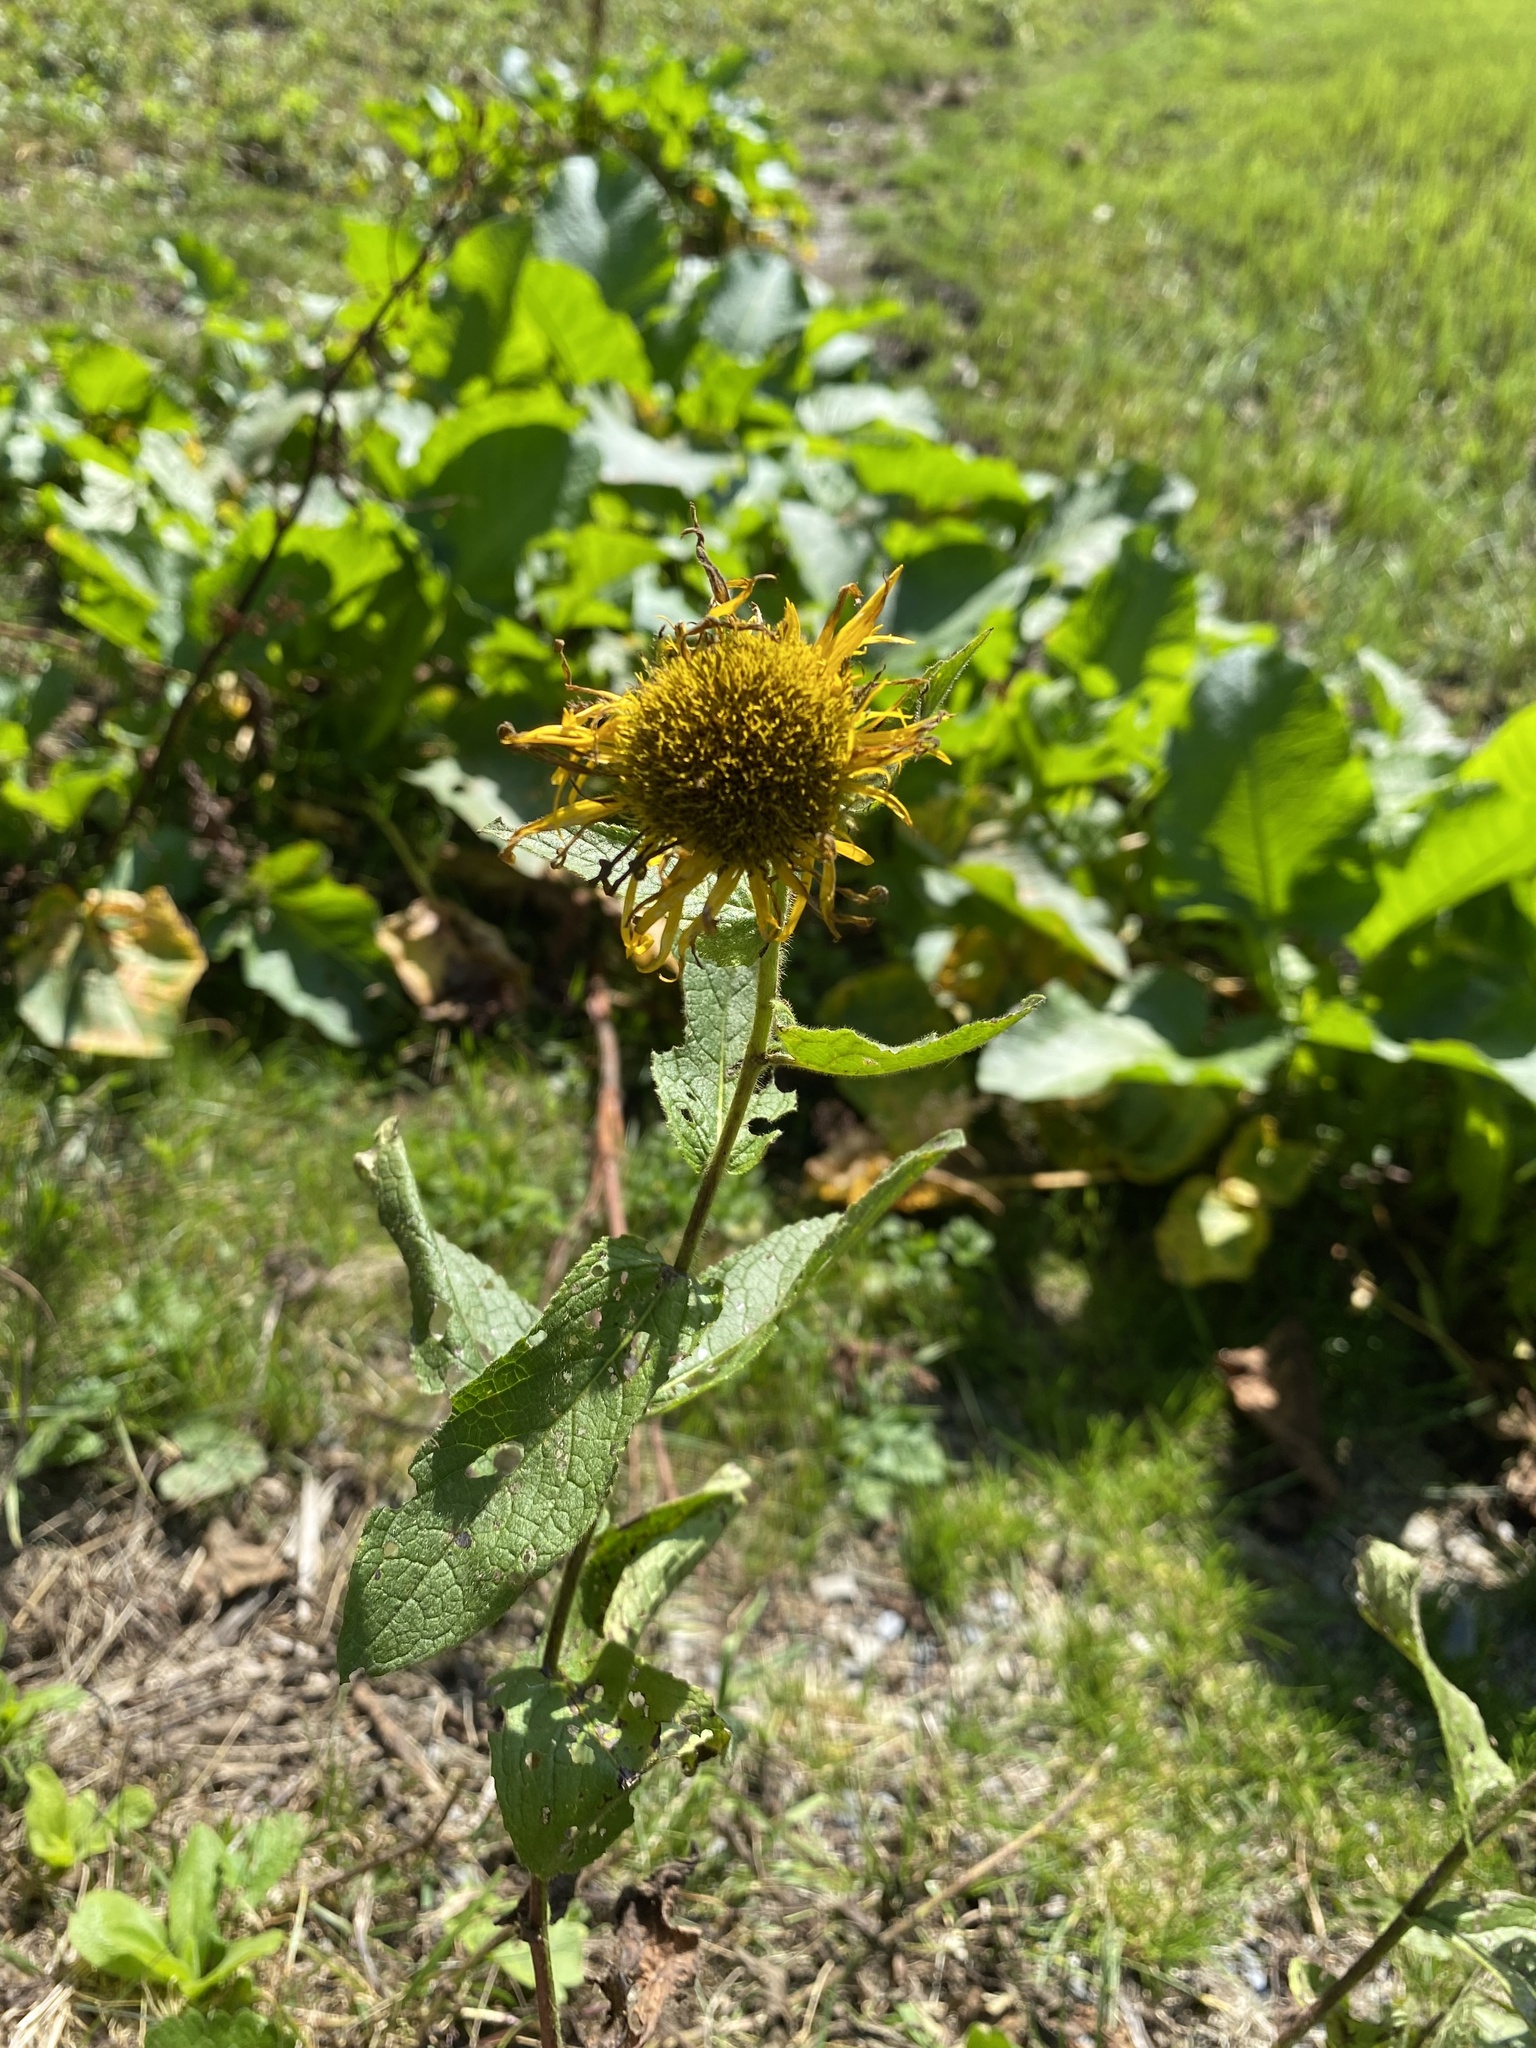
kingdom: Plantae
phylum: Tracheophyta
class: Magnoliopsida
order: Asterales
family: Asteraceae
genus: Pentanema
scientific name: Pentanema orientale
